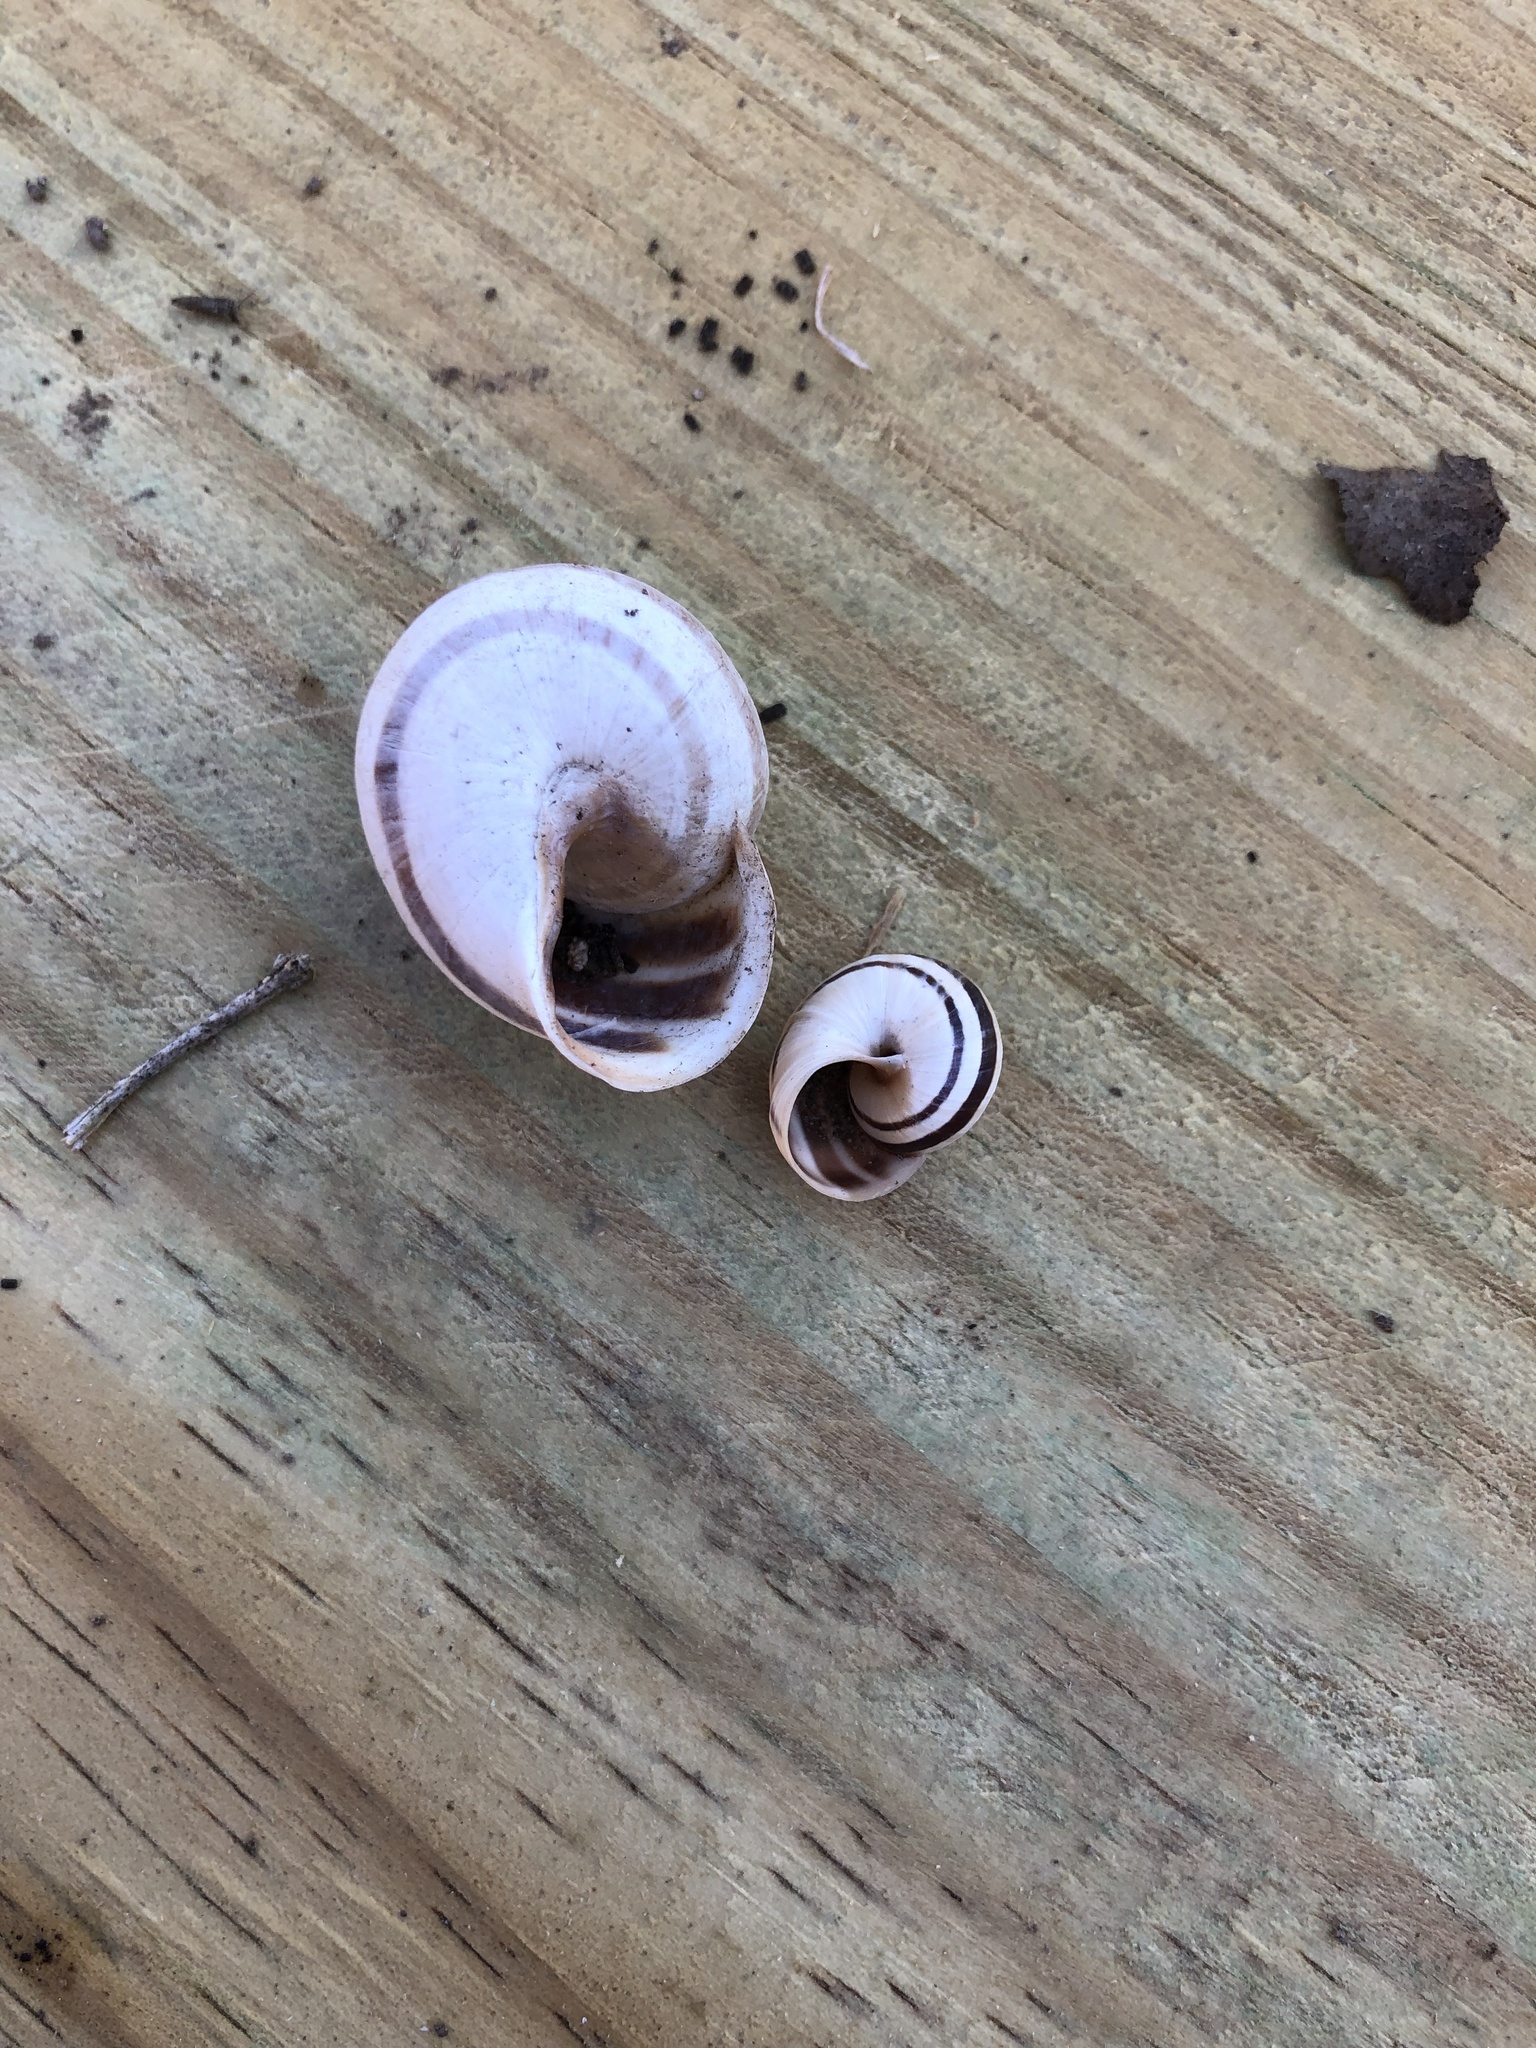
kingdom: Animalia
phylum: Mollusca
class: Gastropoda
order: Stylommatophora
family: Helicidae
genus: Otala
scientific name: Otala lactea
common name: Milk snail
